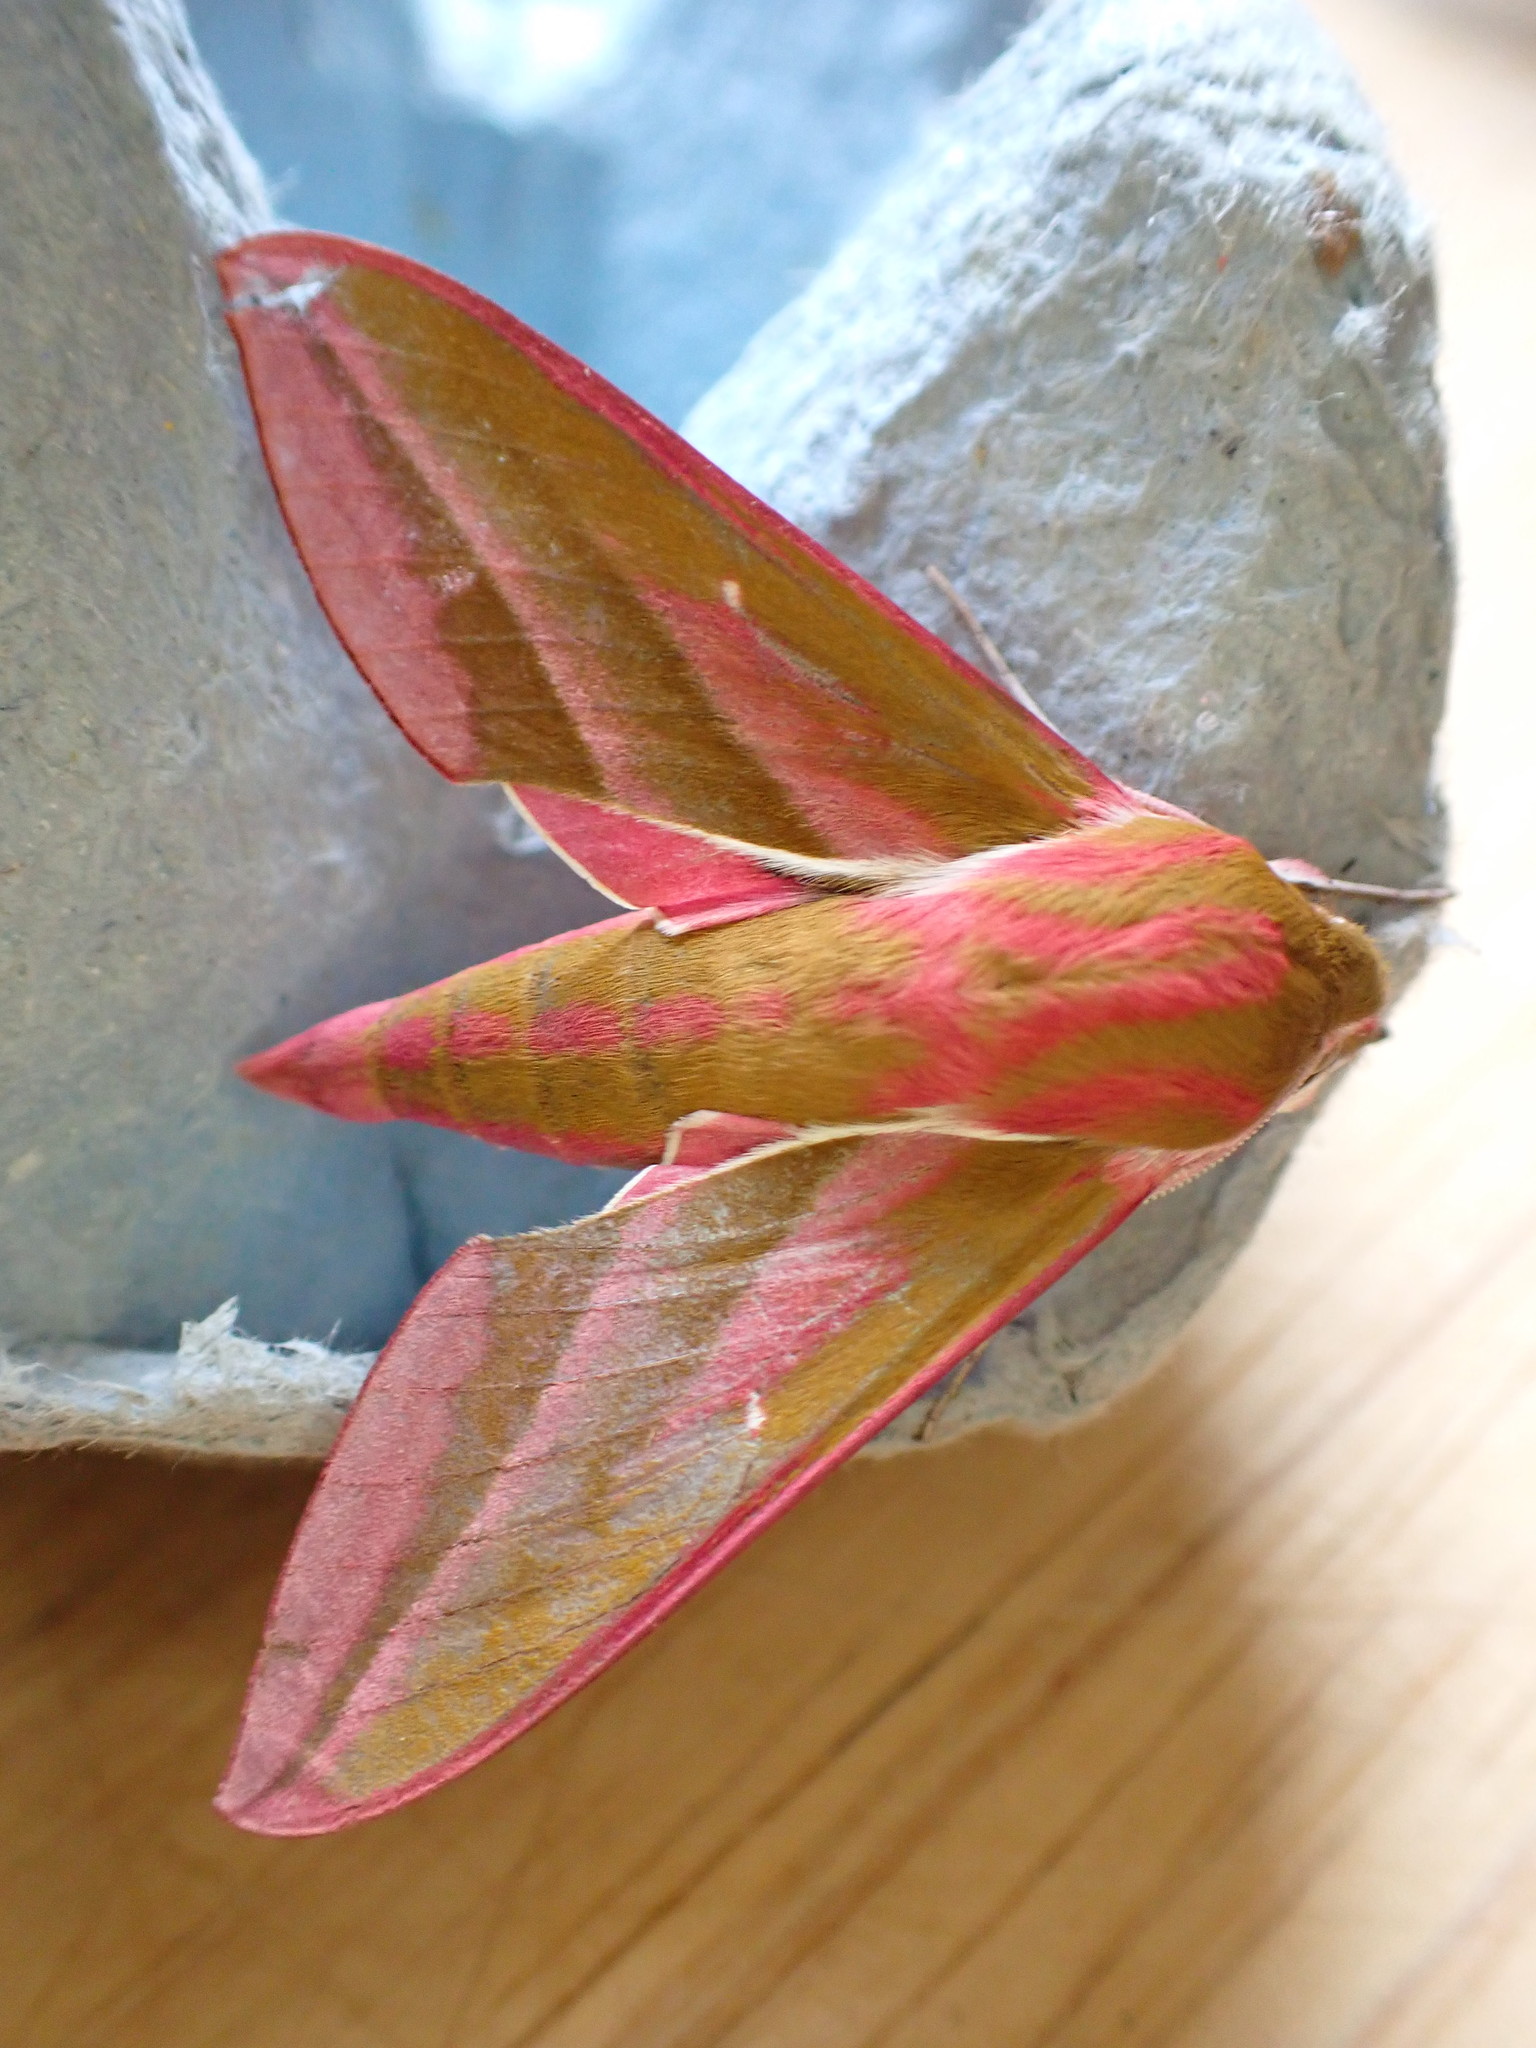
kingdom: Animalia
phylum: Arthropoda
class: Insecta
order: Lepidoptera
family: Sphingidae
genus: Deilephila
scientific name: Deilephila elpenor
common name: Elephant hawk-moth
